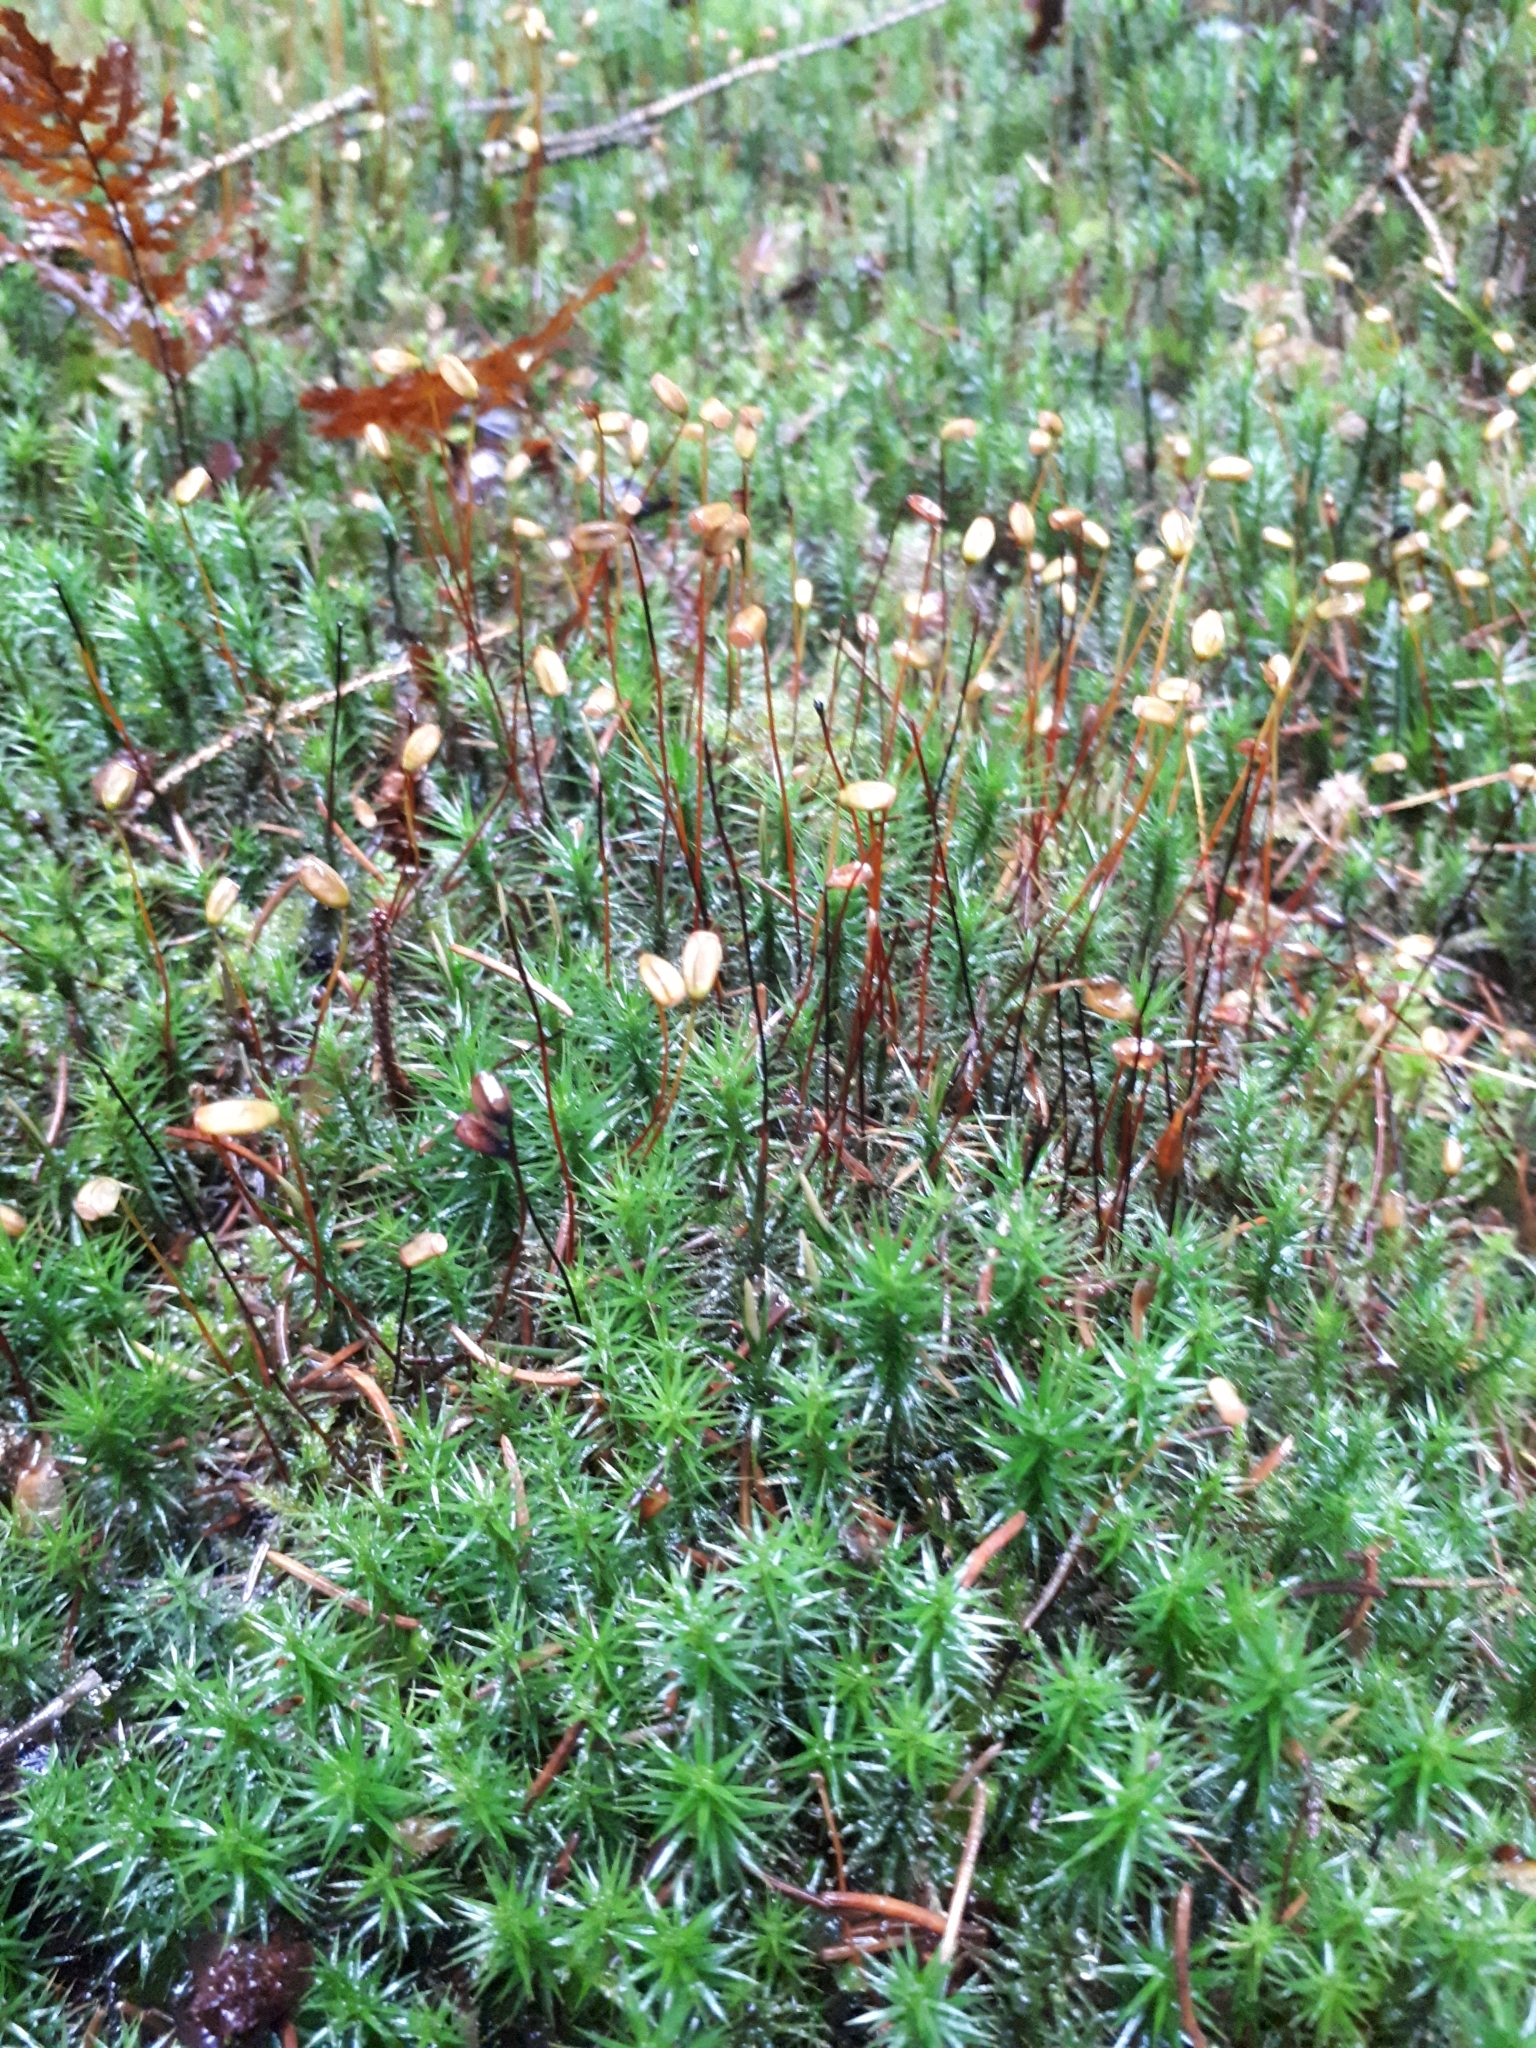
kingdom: Plantae
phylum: Bryophyta
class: Polytrichopsida
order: Polytrichales
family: Polytrichaceae
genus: Polytrichum
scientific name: Polytrichum formosum
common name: Bank haircap moss
